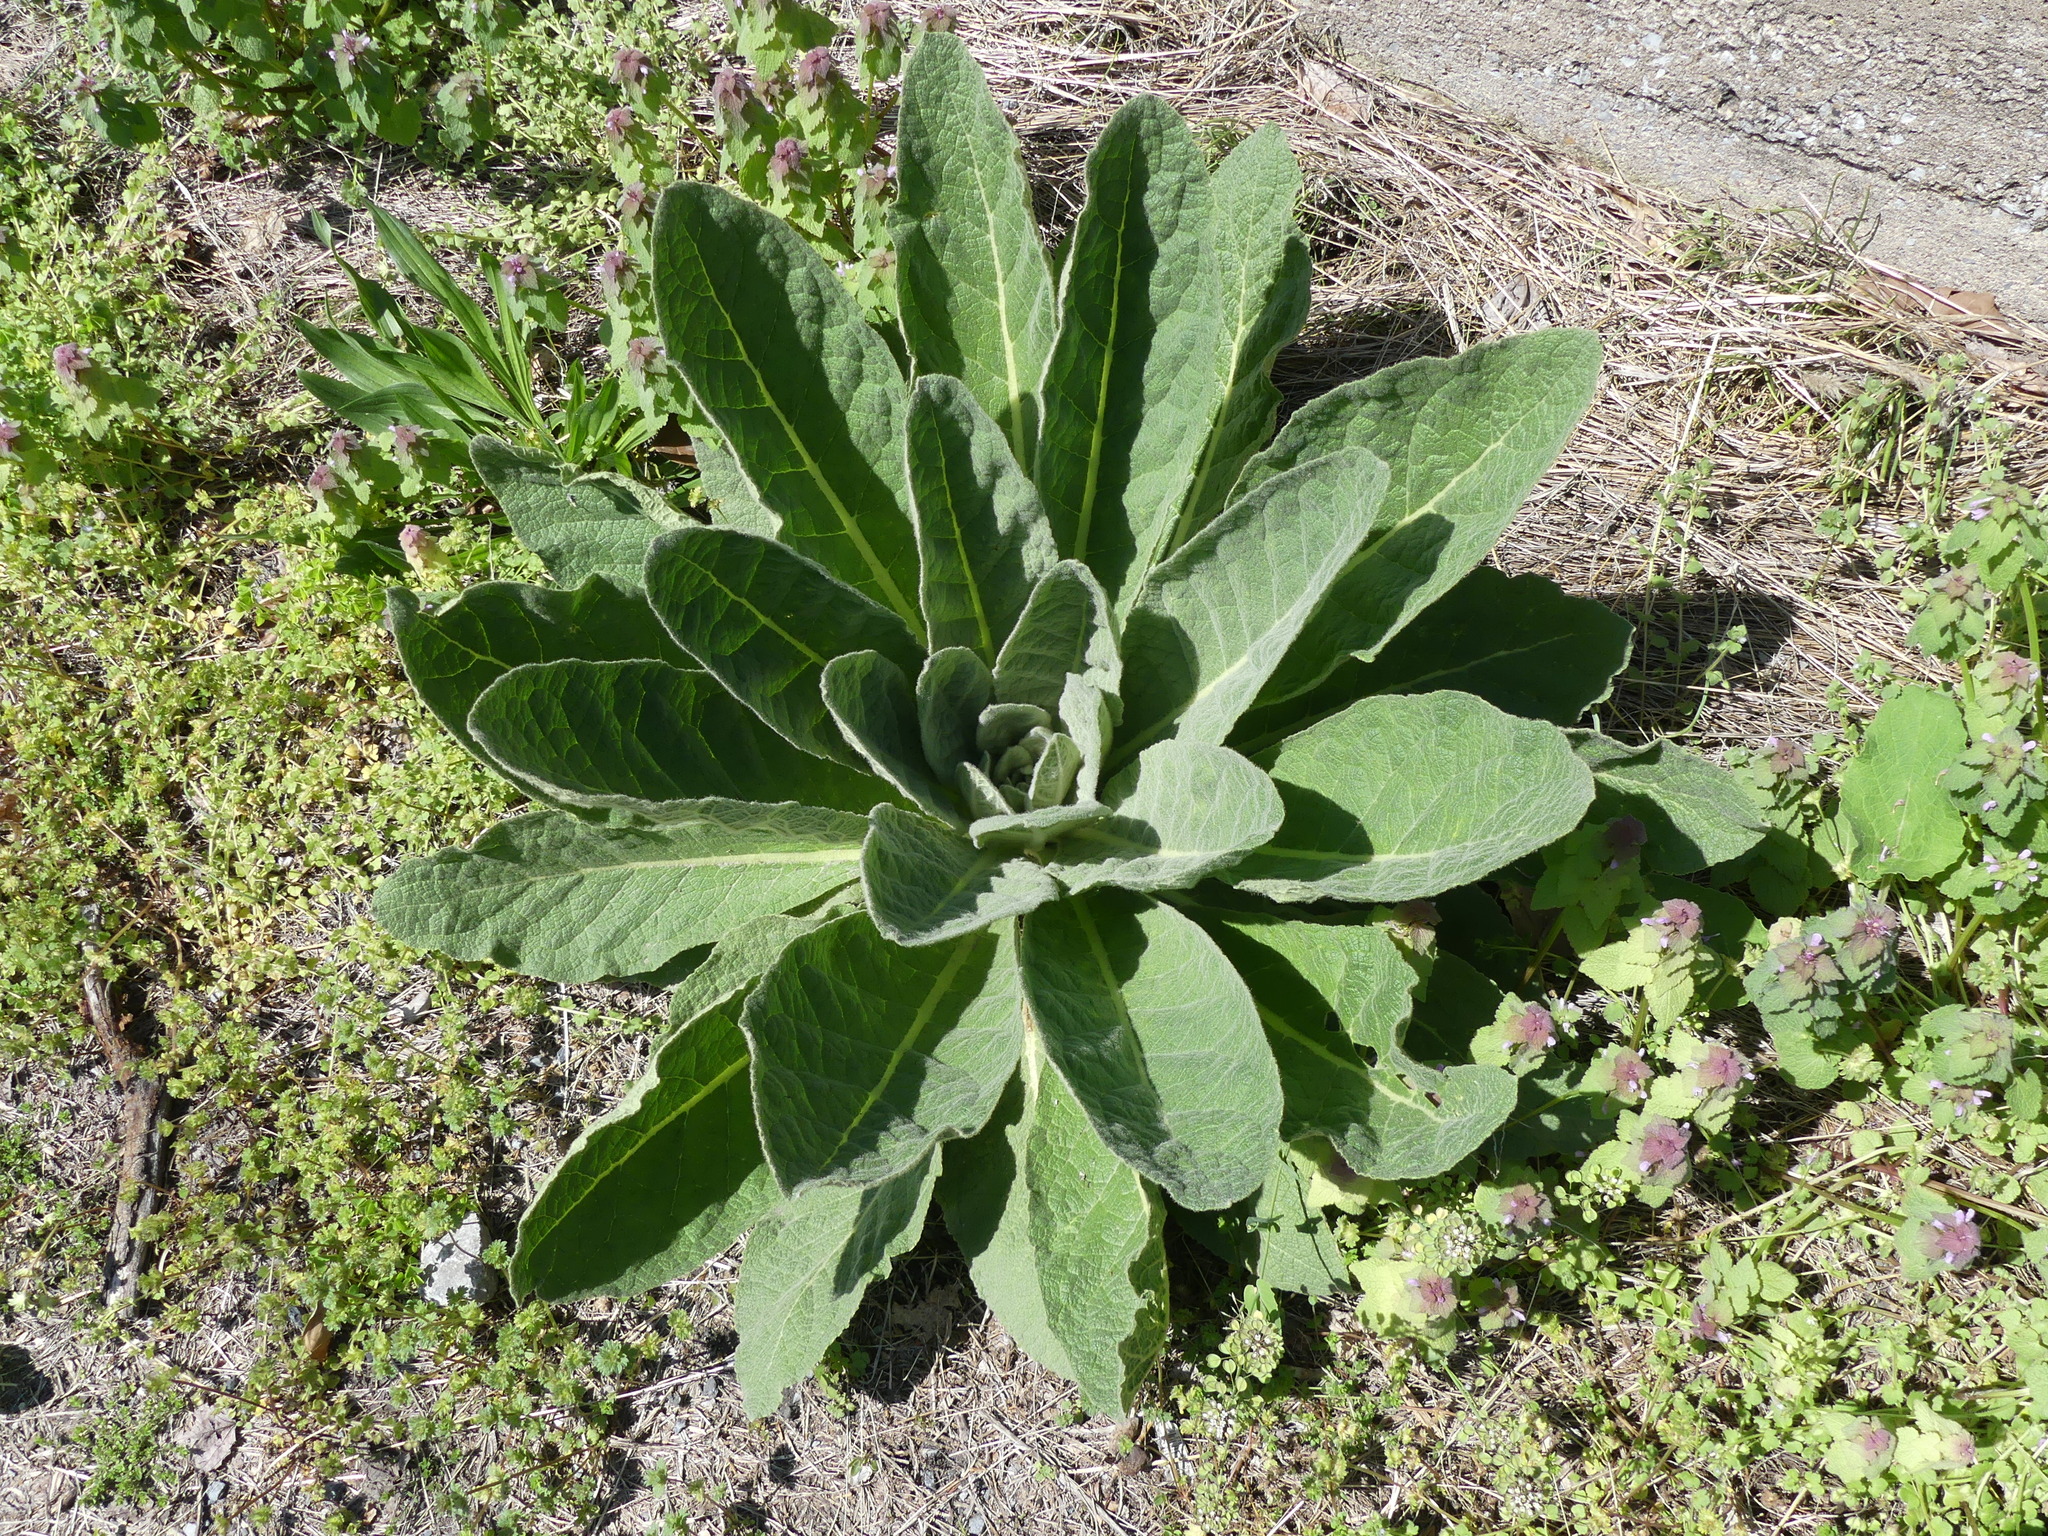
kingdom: Plantae
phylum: Tracheophyta
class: Magnoliopsida
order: Lamiales
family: Scrophulariaceae
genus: Verbascum
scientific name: Verbascum thapsus
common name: Common mullein
